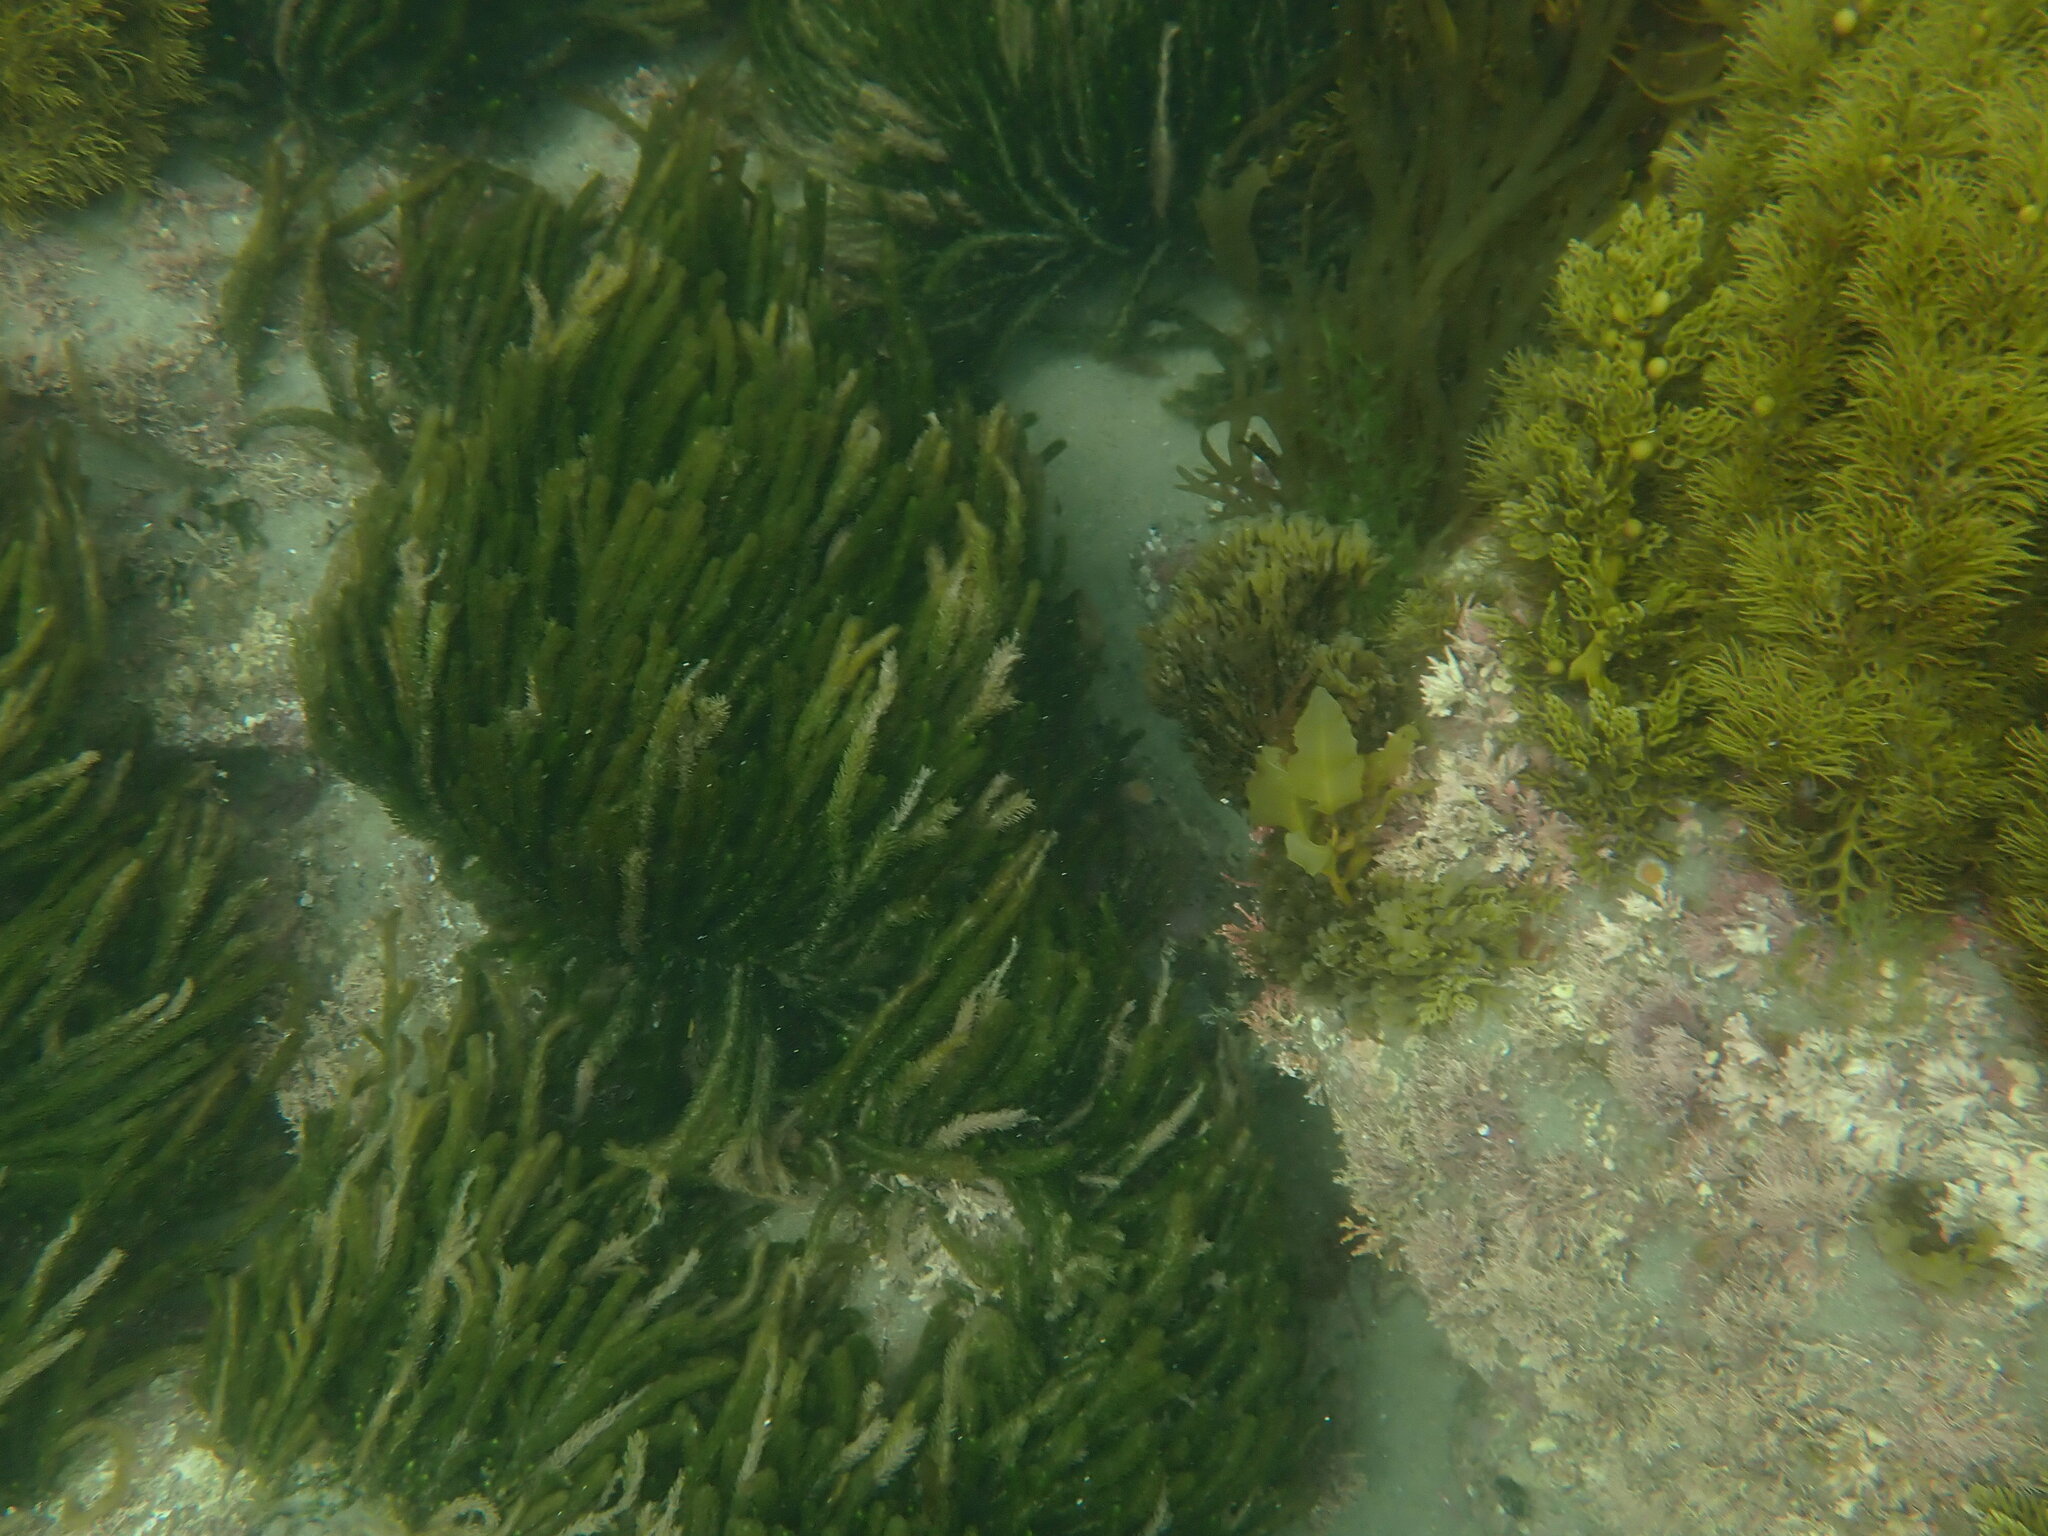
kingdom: Plantae
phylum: Chlorophyta
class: Ulvophyceae
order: Bryopsidales
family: Caulerpaceae
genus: Caulerpa
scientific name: Caulerpa brownii
